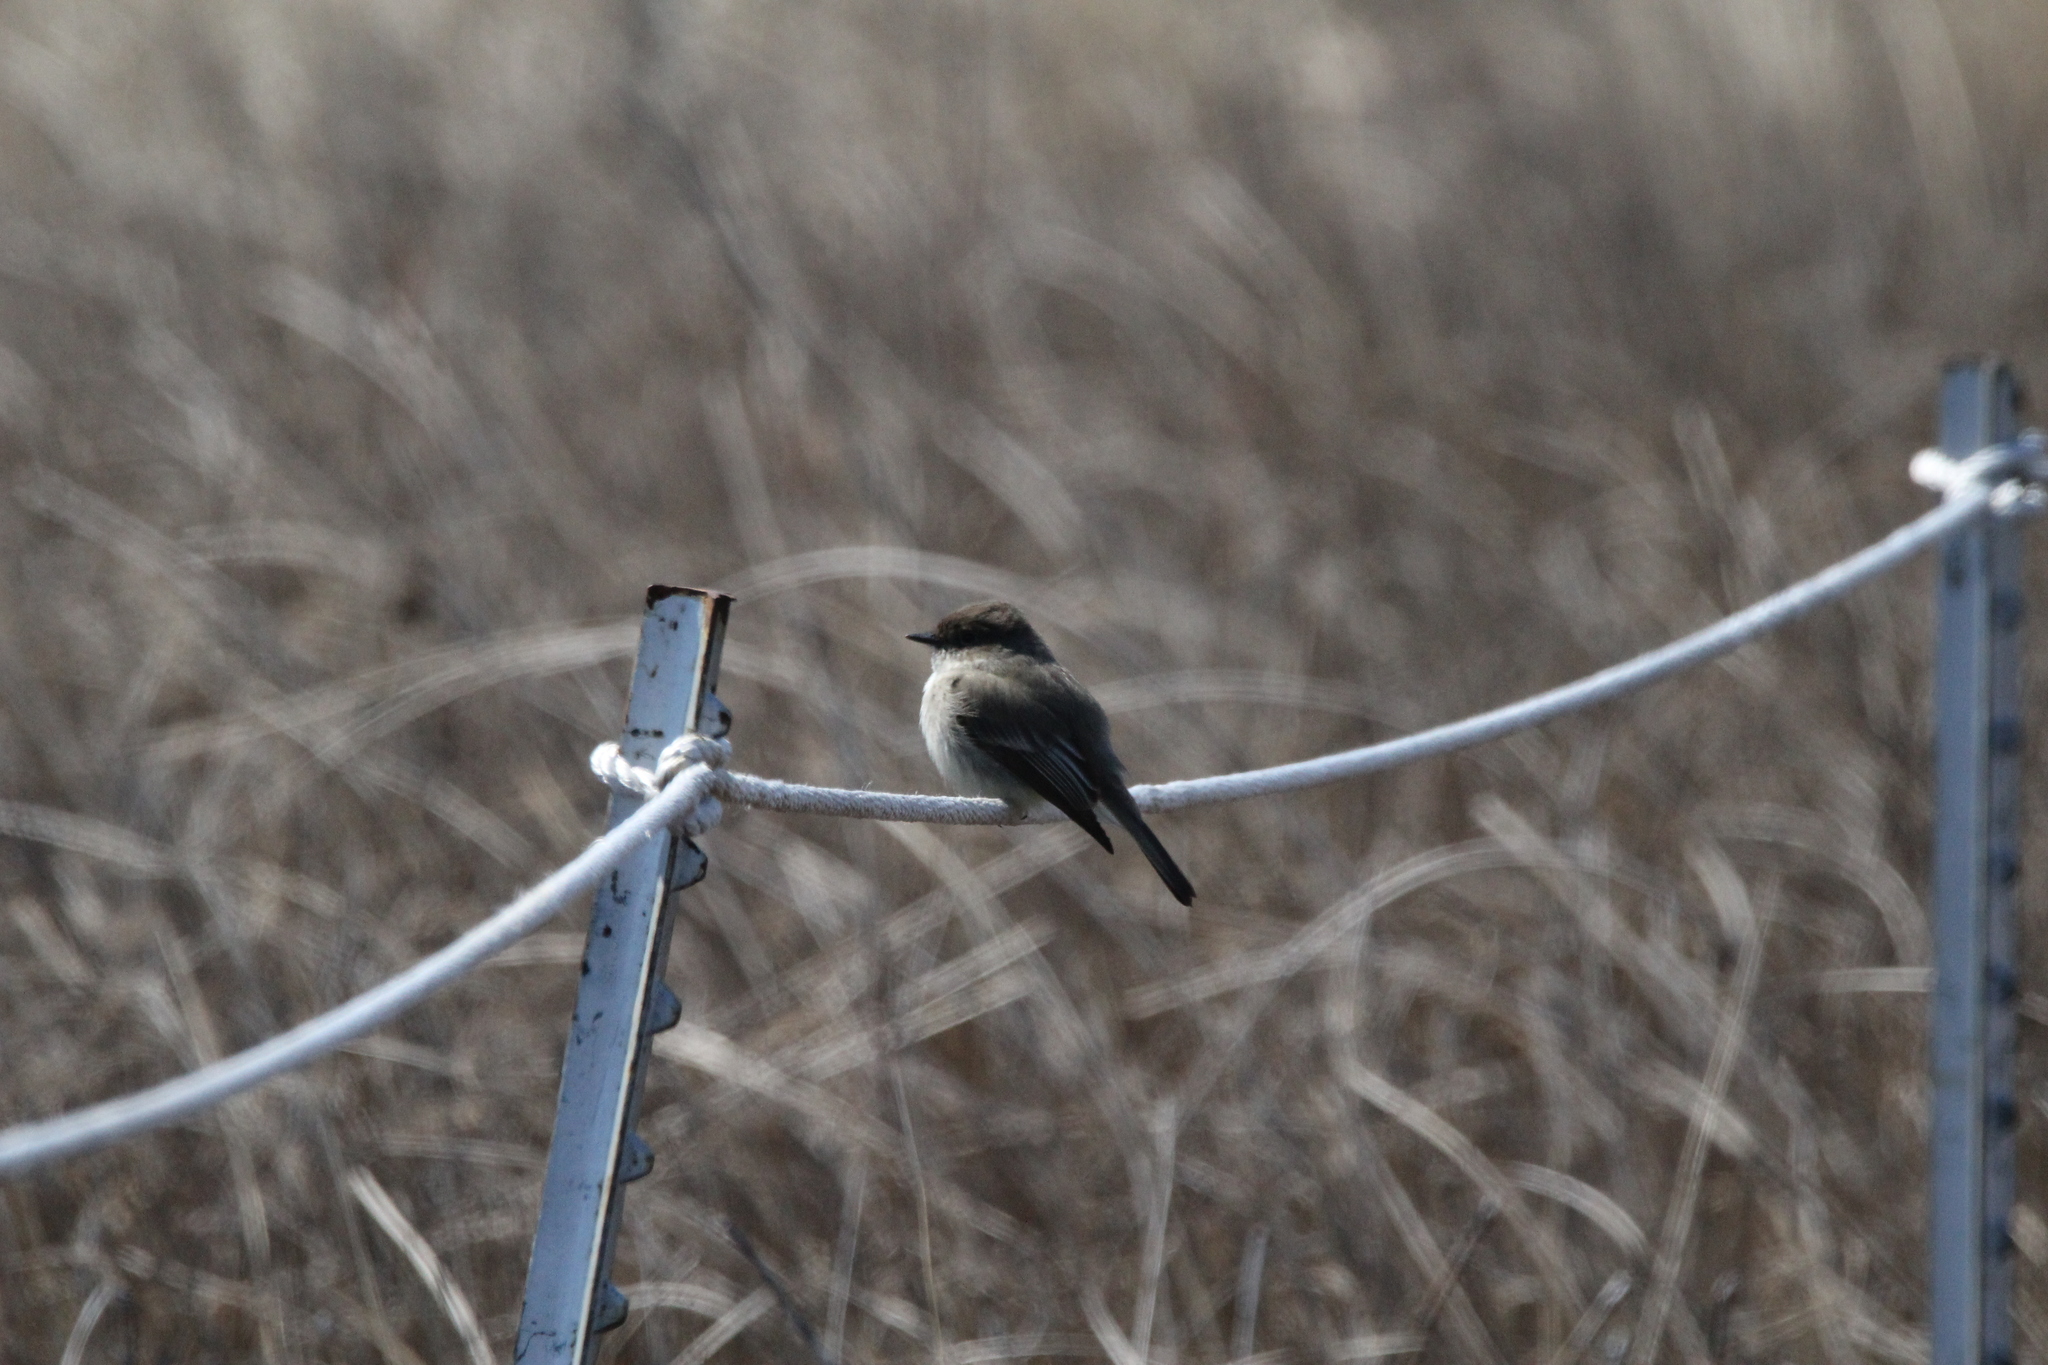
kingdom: Animalia
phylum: Chordata
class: Aves
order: Passeriformes
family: Tyrannidae
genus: Sayornis
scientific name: Sayornis phoebe
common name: Eastern phoebe
